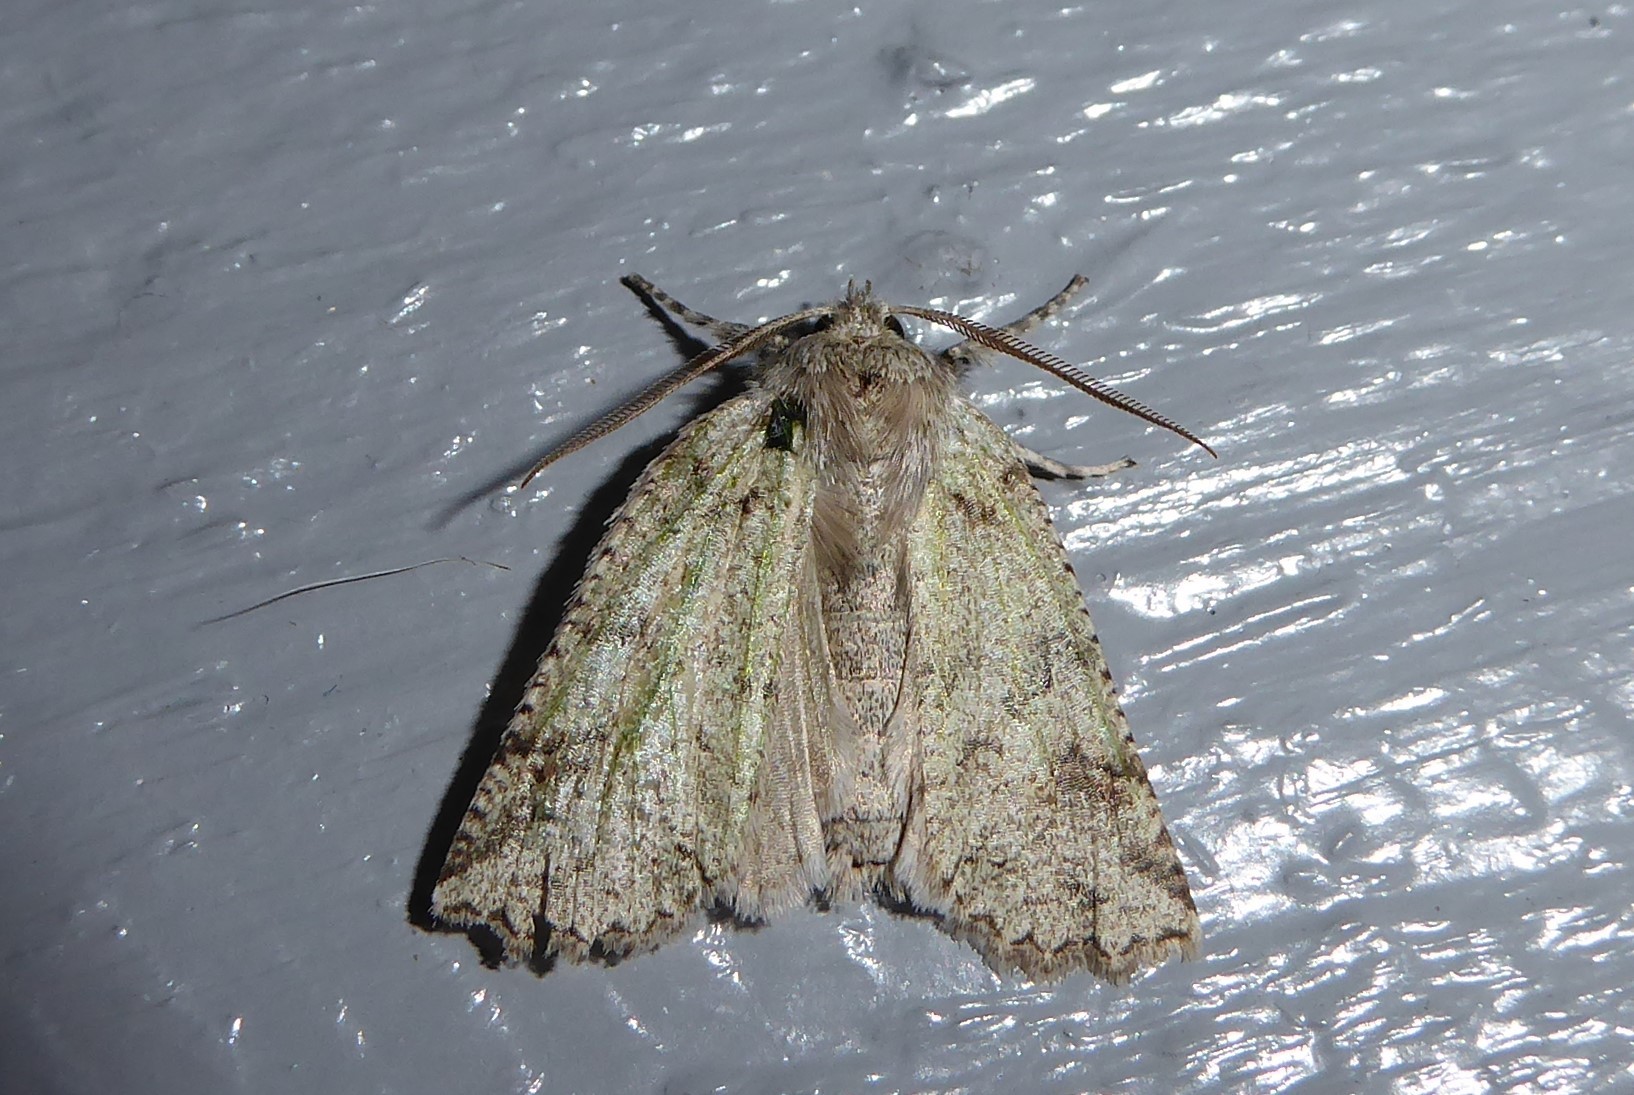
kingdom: Animalia
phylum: Arthropoda
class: Insecta
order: Lepidoptera
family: Geometridae
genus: Declana
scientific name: Declana floccosa
